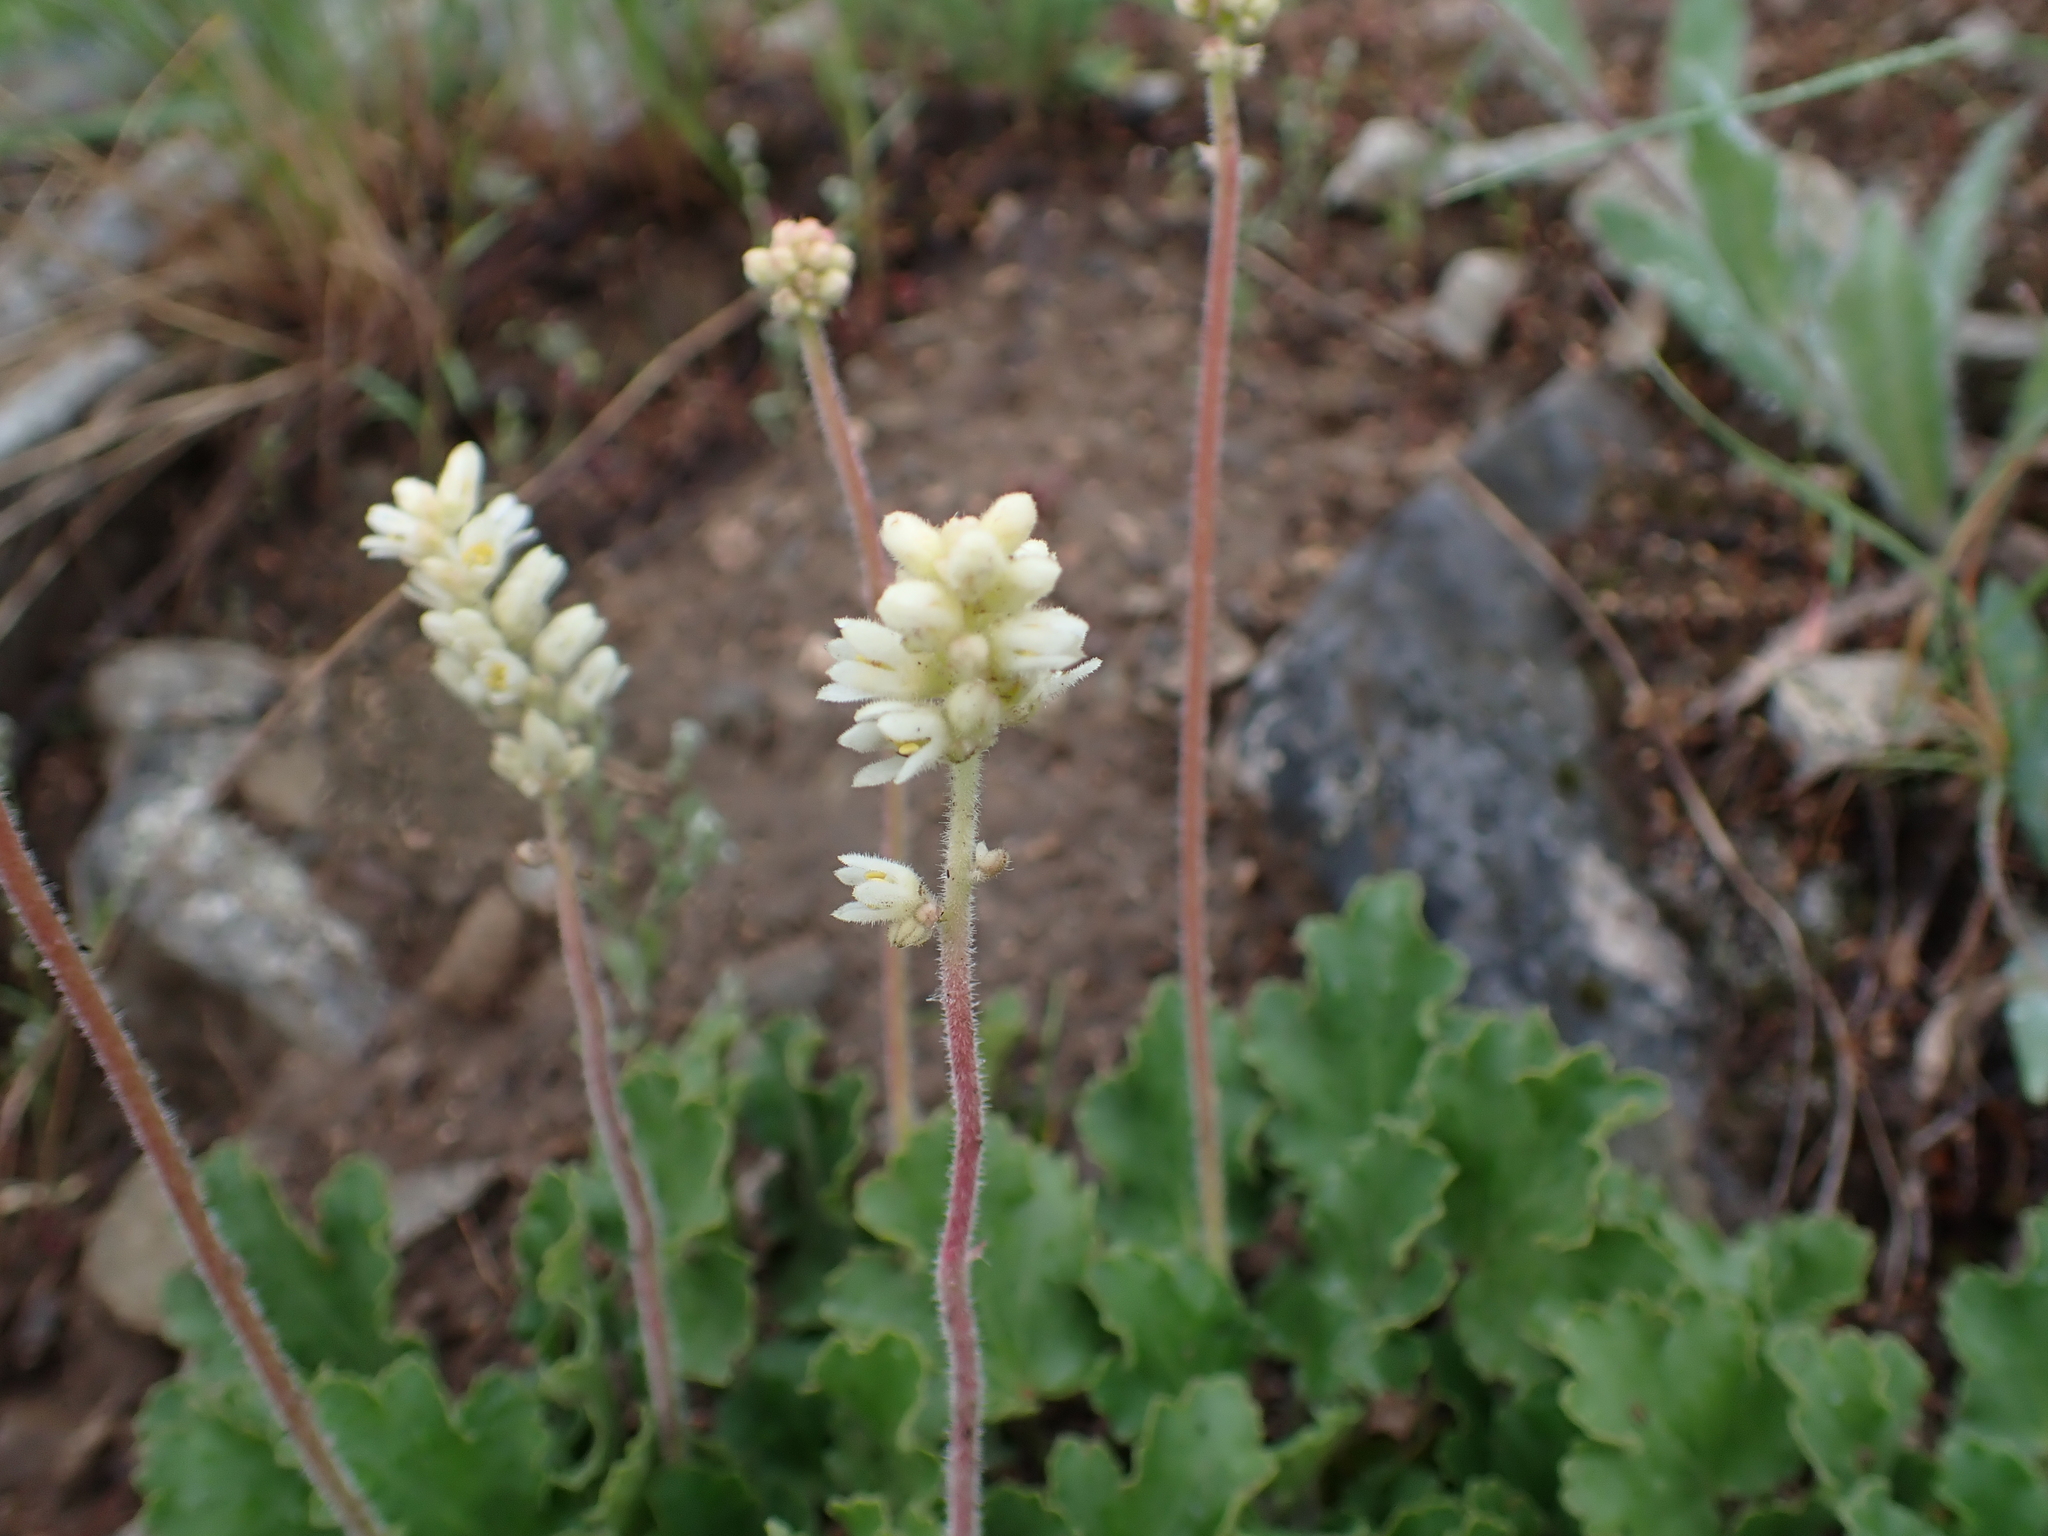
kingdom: Plantae
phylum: Tracheophyta
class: Magnoliopsida
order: Saxifragales
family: Saxifragaceae
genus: Heuchera
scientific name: Heuchera cylindrica
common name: Mat alumroot
